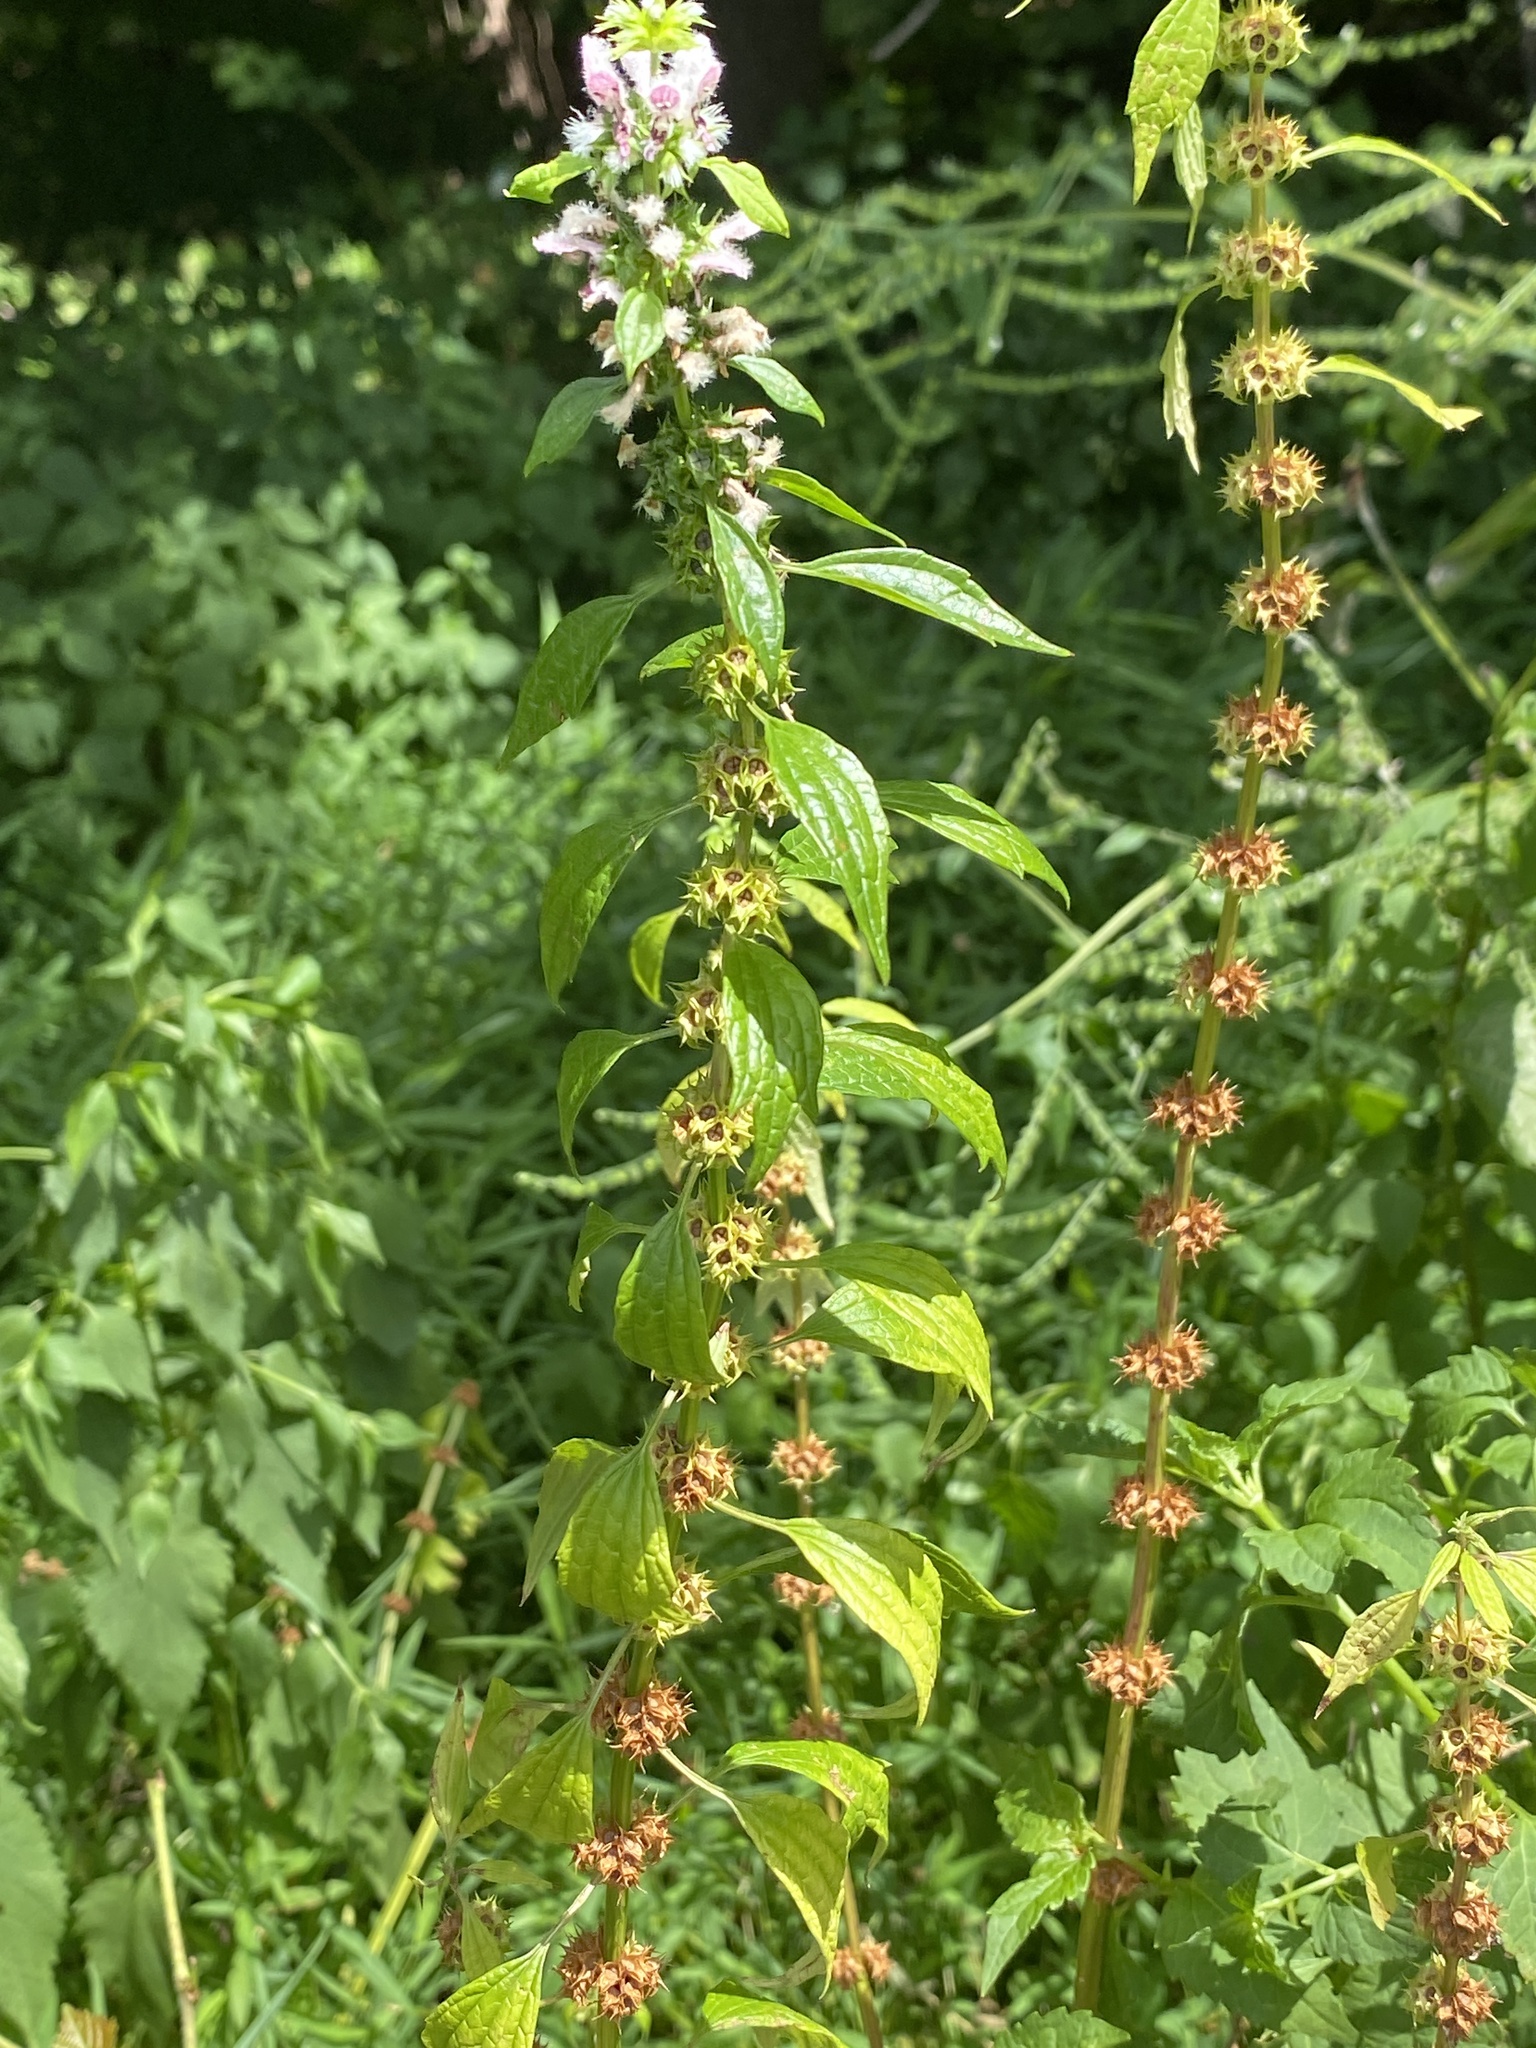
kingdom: Plantae
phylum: Tracheophyta
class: Magnoliopsida
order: Lamiales
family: Lamiaceae
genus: Leonurus
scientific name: Leonurus cardiaca
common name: Motherwort
